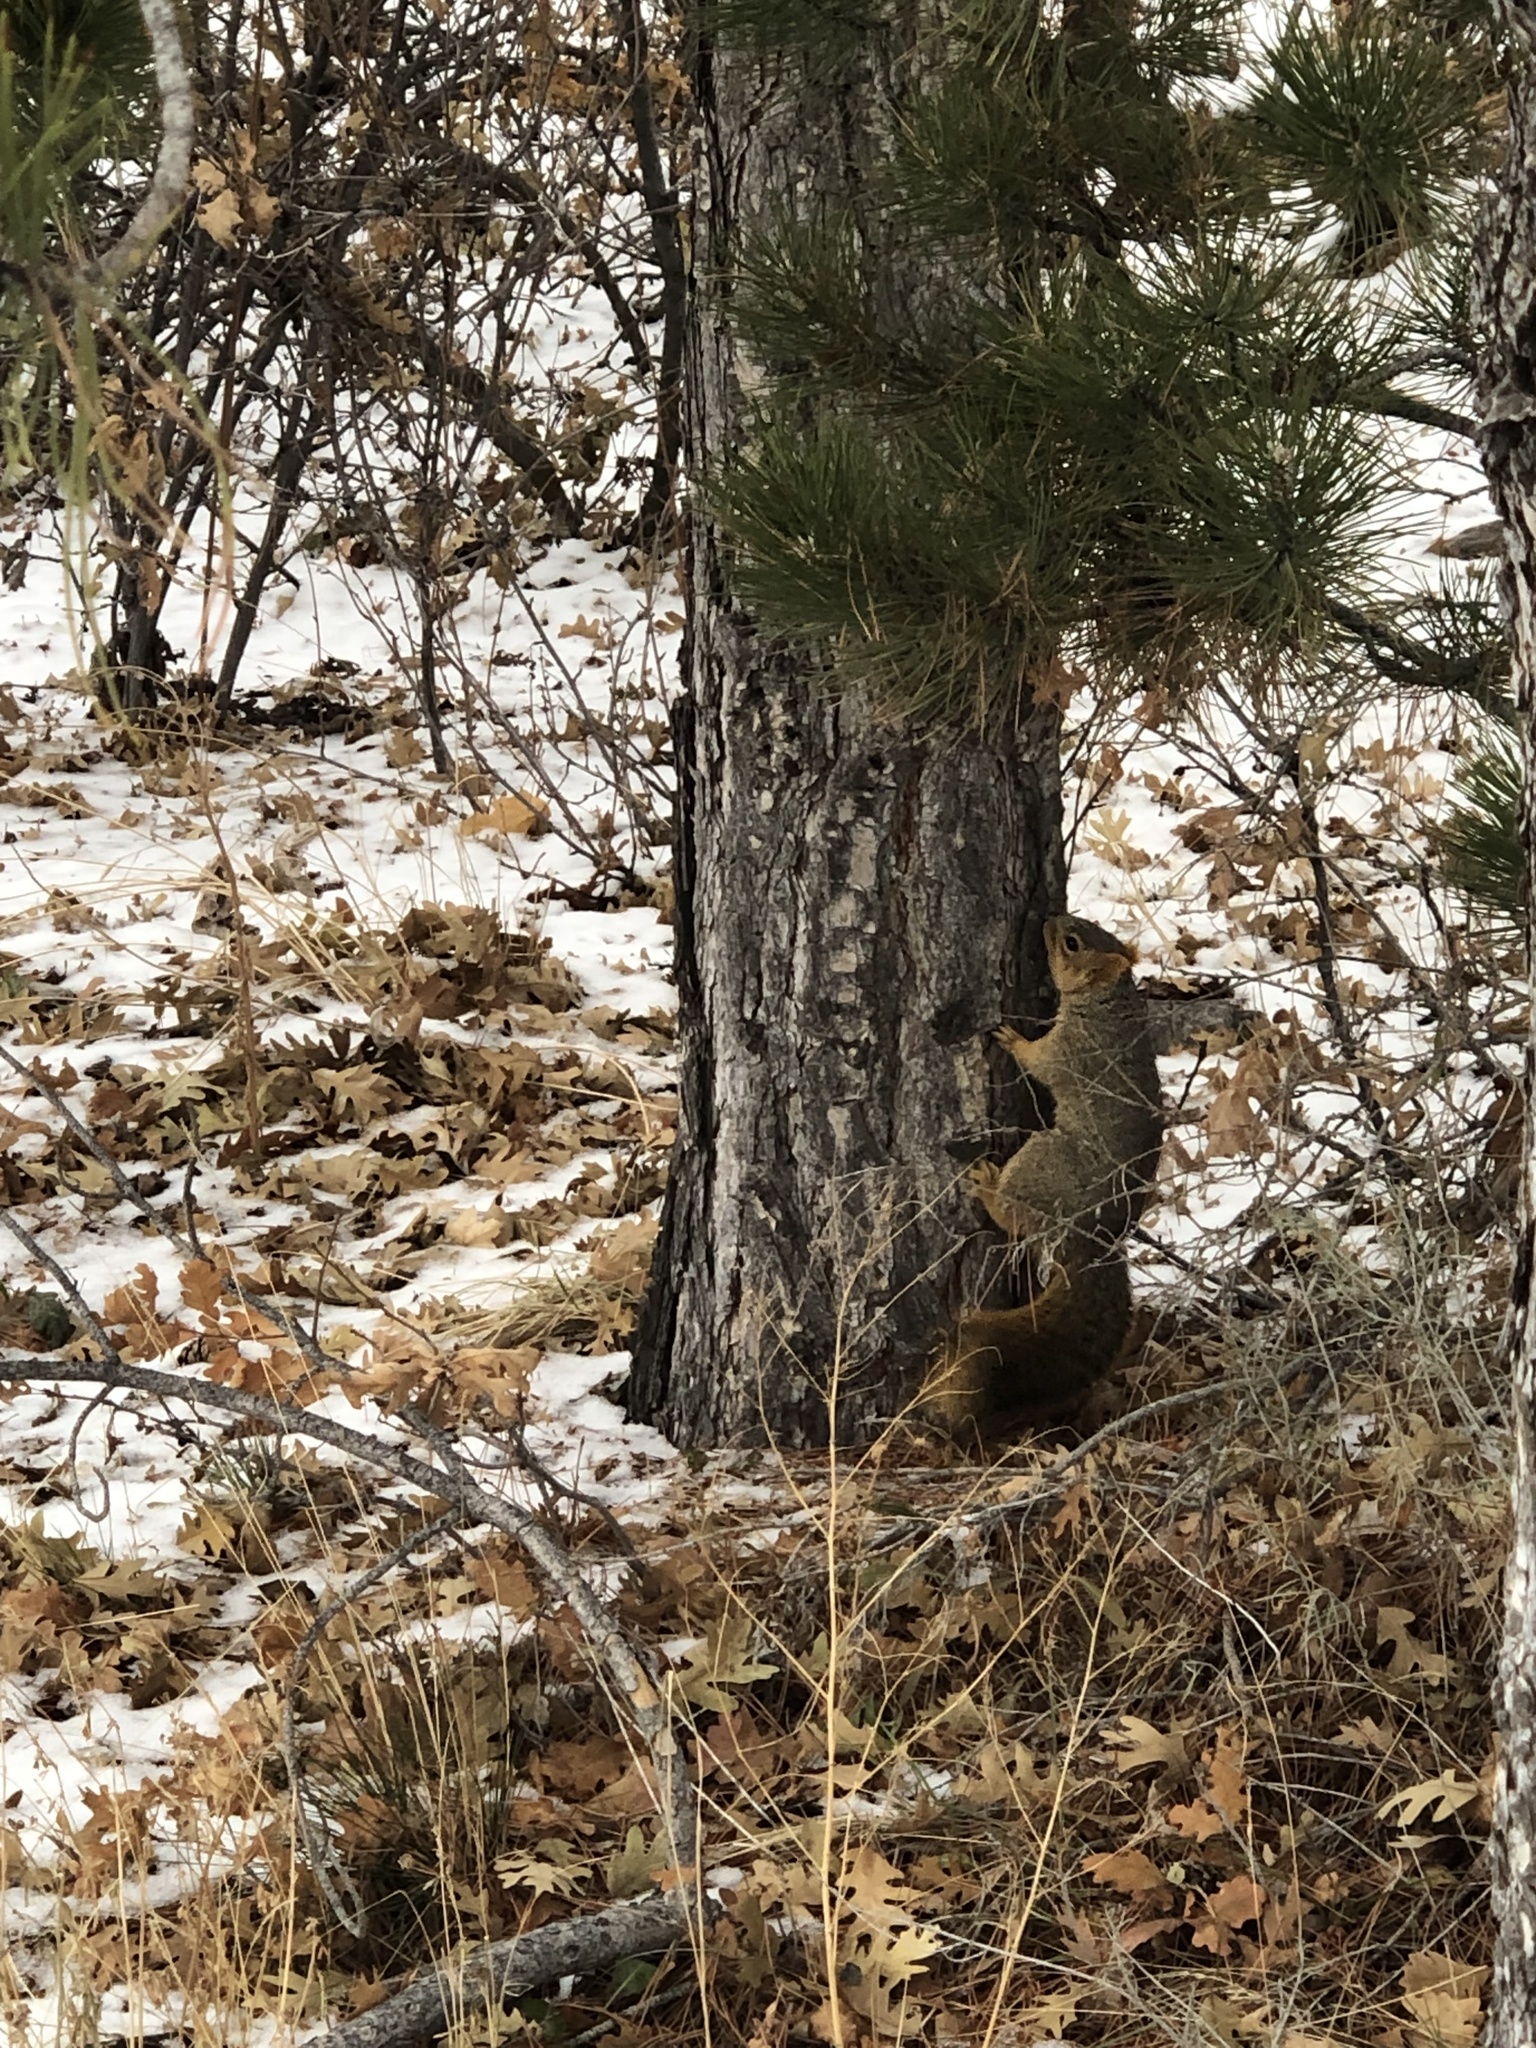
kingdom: Animalia
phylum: Chordata
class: Mammalia
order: Rodentia
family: Sciuridae
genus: Sciurus
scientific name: Sciurus niger
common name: Fox squirrel
